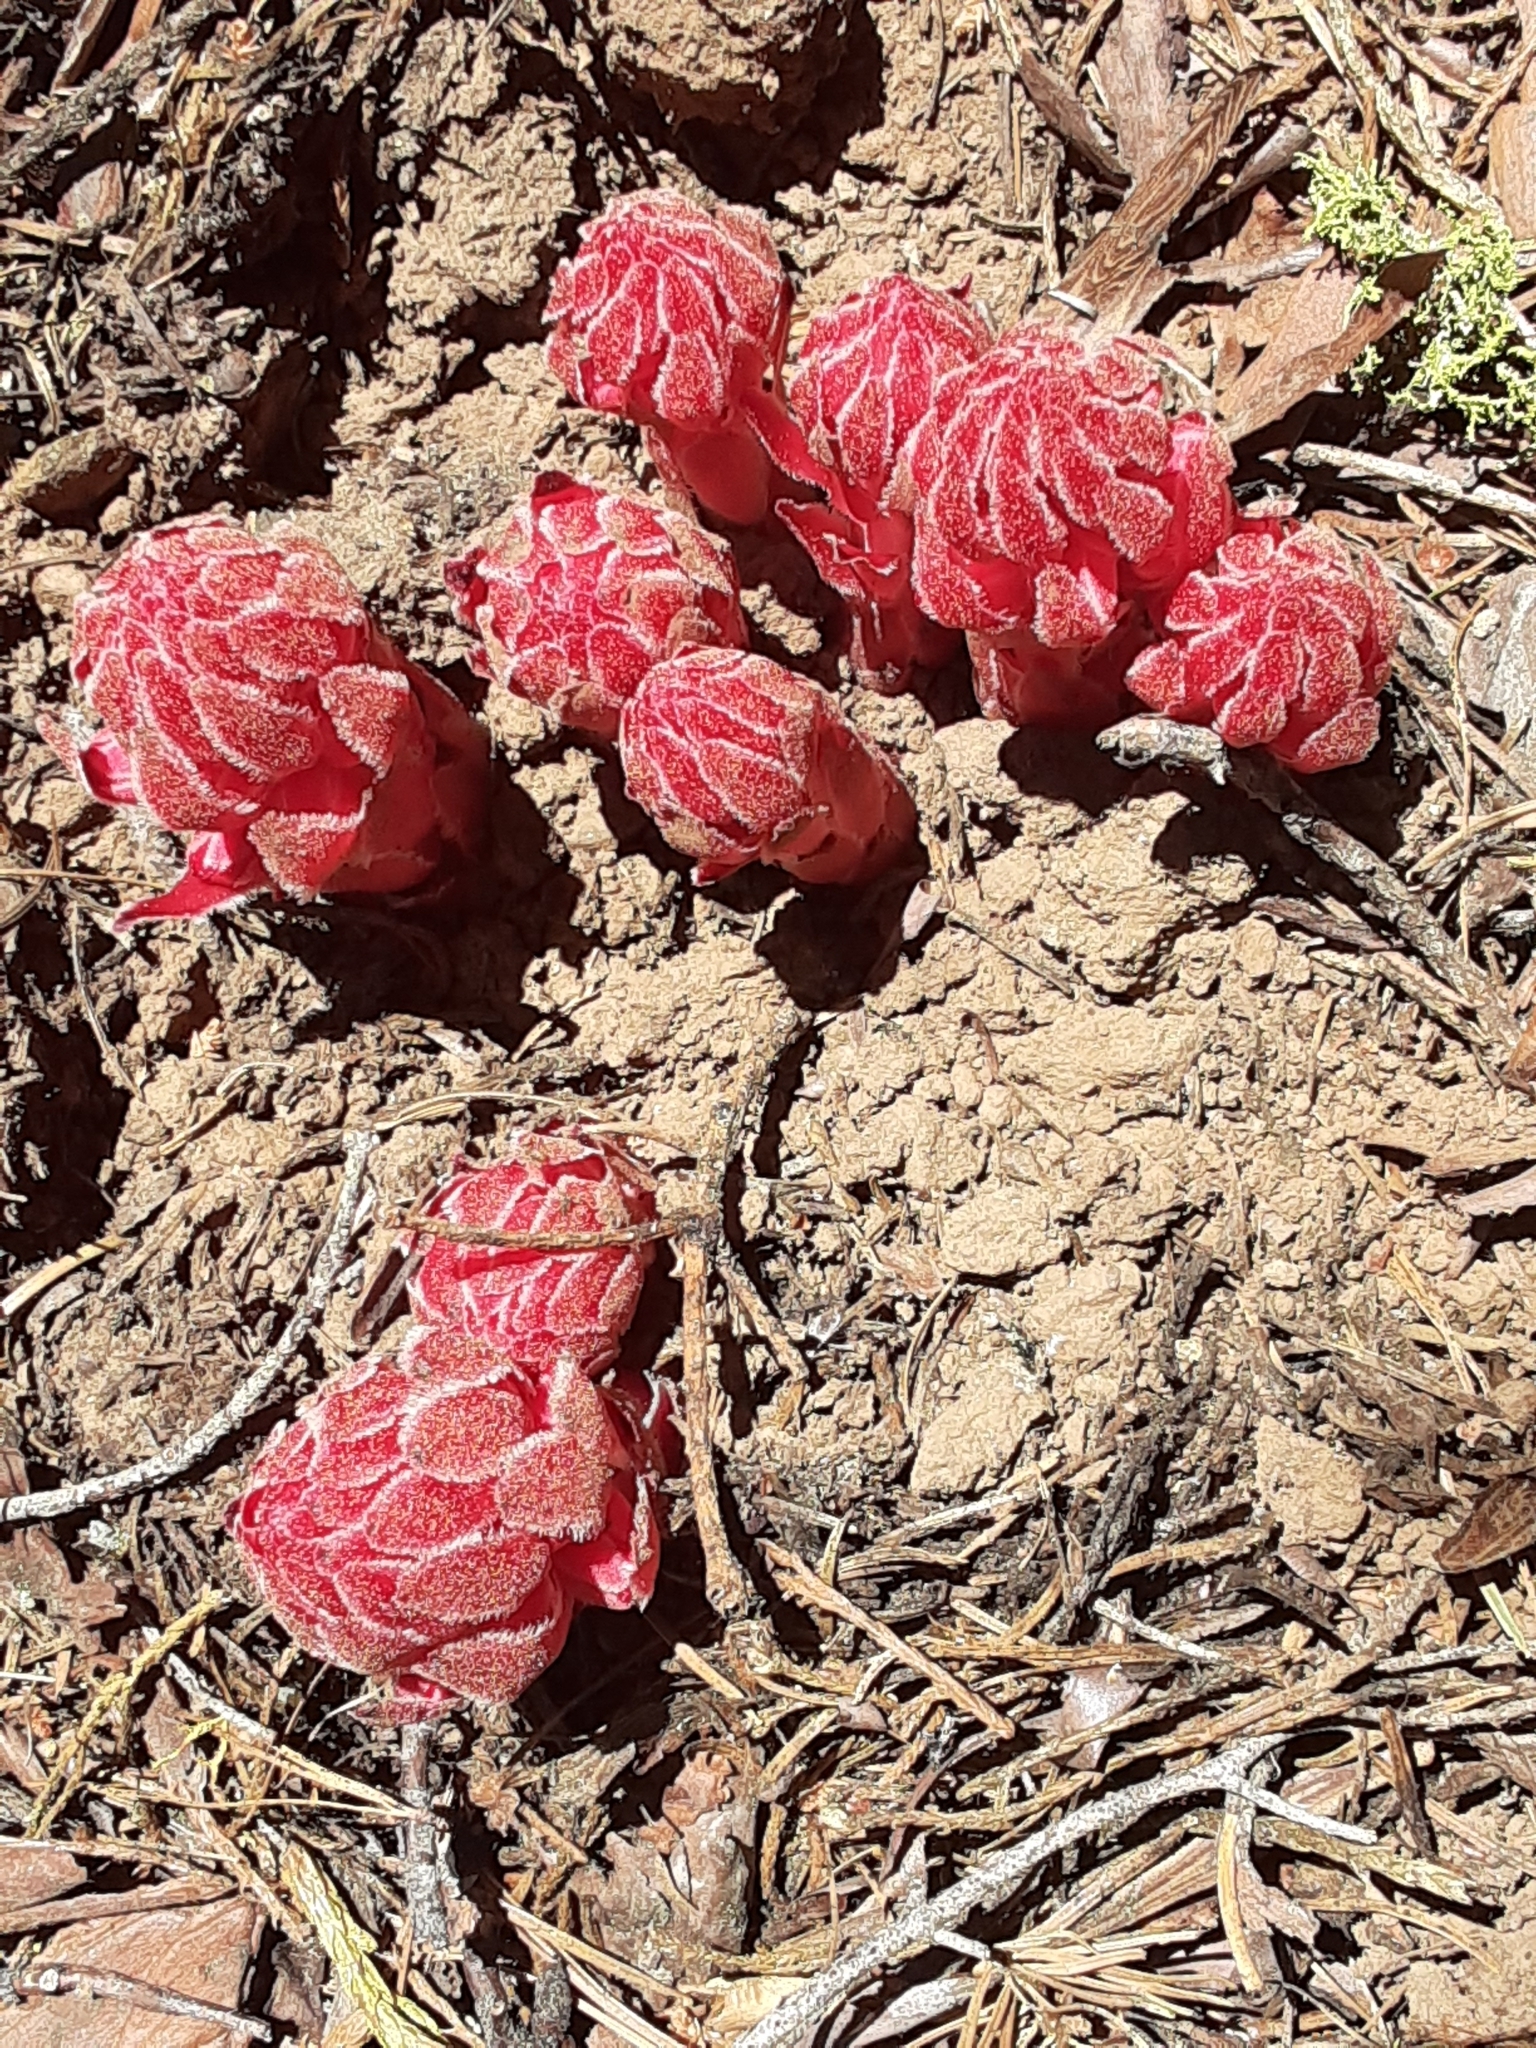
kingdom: Plantae
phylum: Tracheophyta
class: Magnoliopsida
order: Ericales
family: Ericaceae
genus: Sarcodes
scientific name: Sarcodes sanguinea
